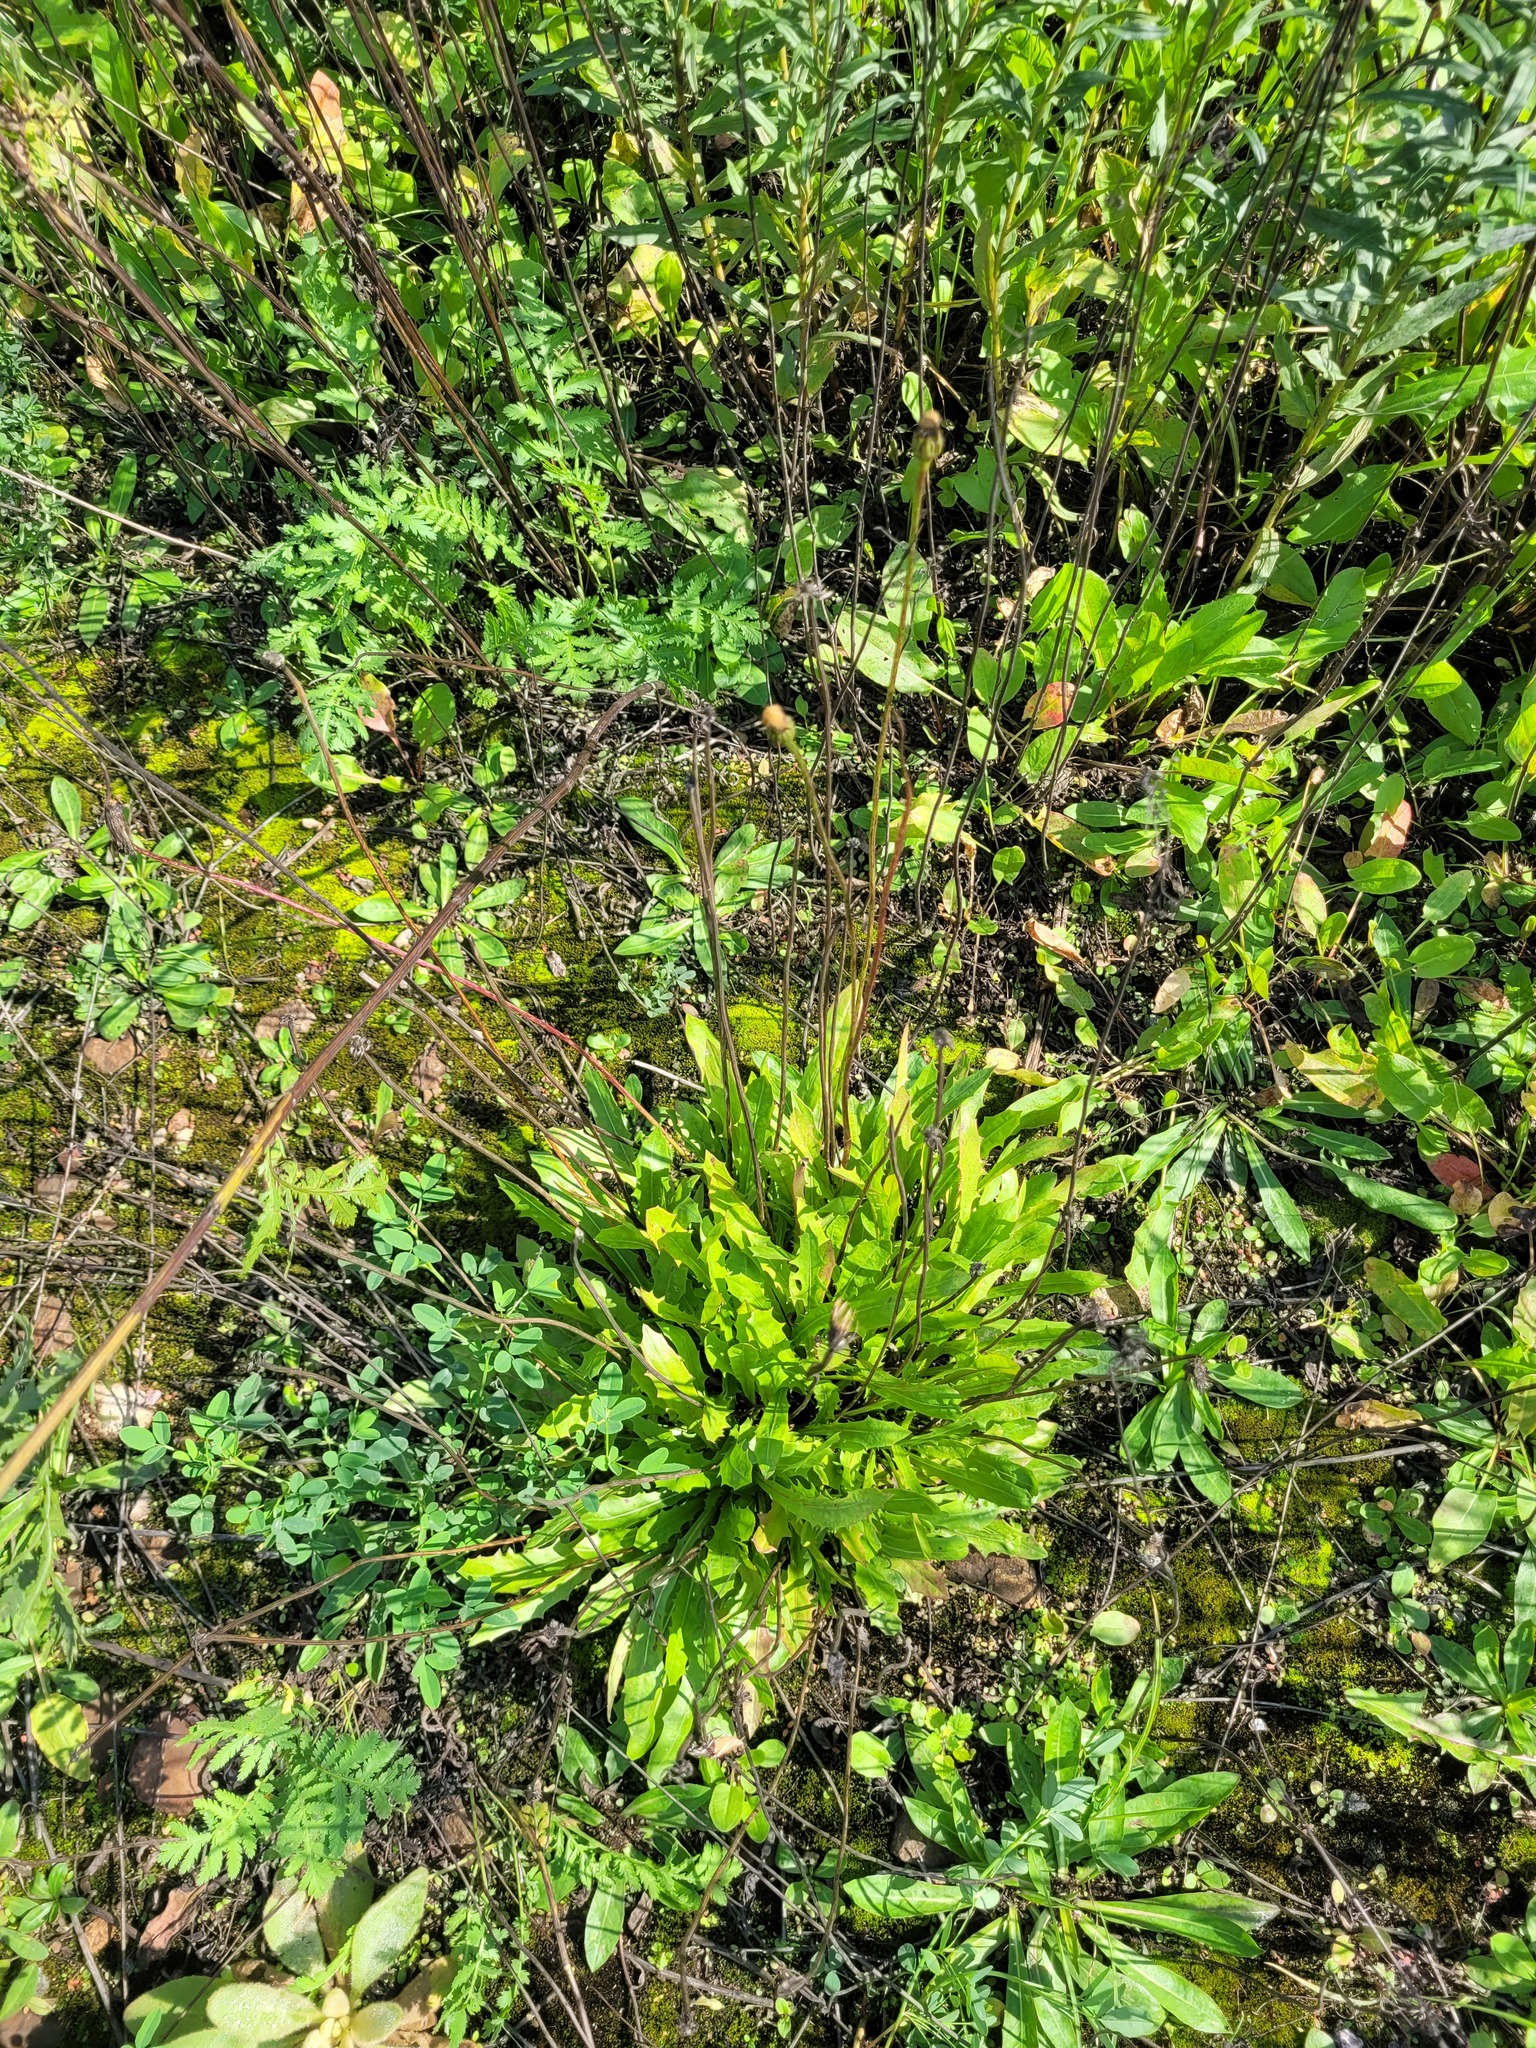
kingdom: Plantae
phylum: Tracheophyta
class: Magnoliopsida
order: Asterales
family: Asteraceae
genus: Leontodon
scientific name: Leontodon hispidus
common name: Rough hawkbit
